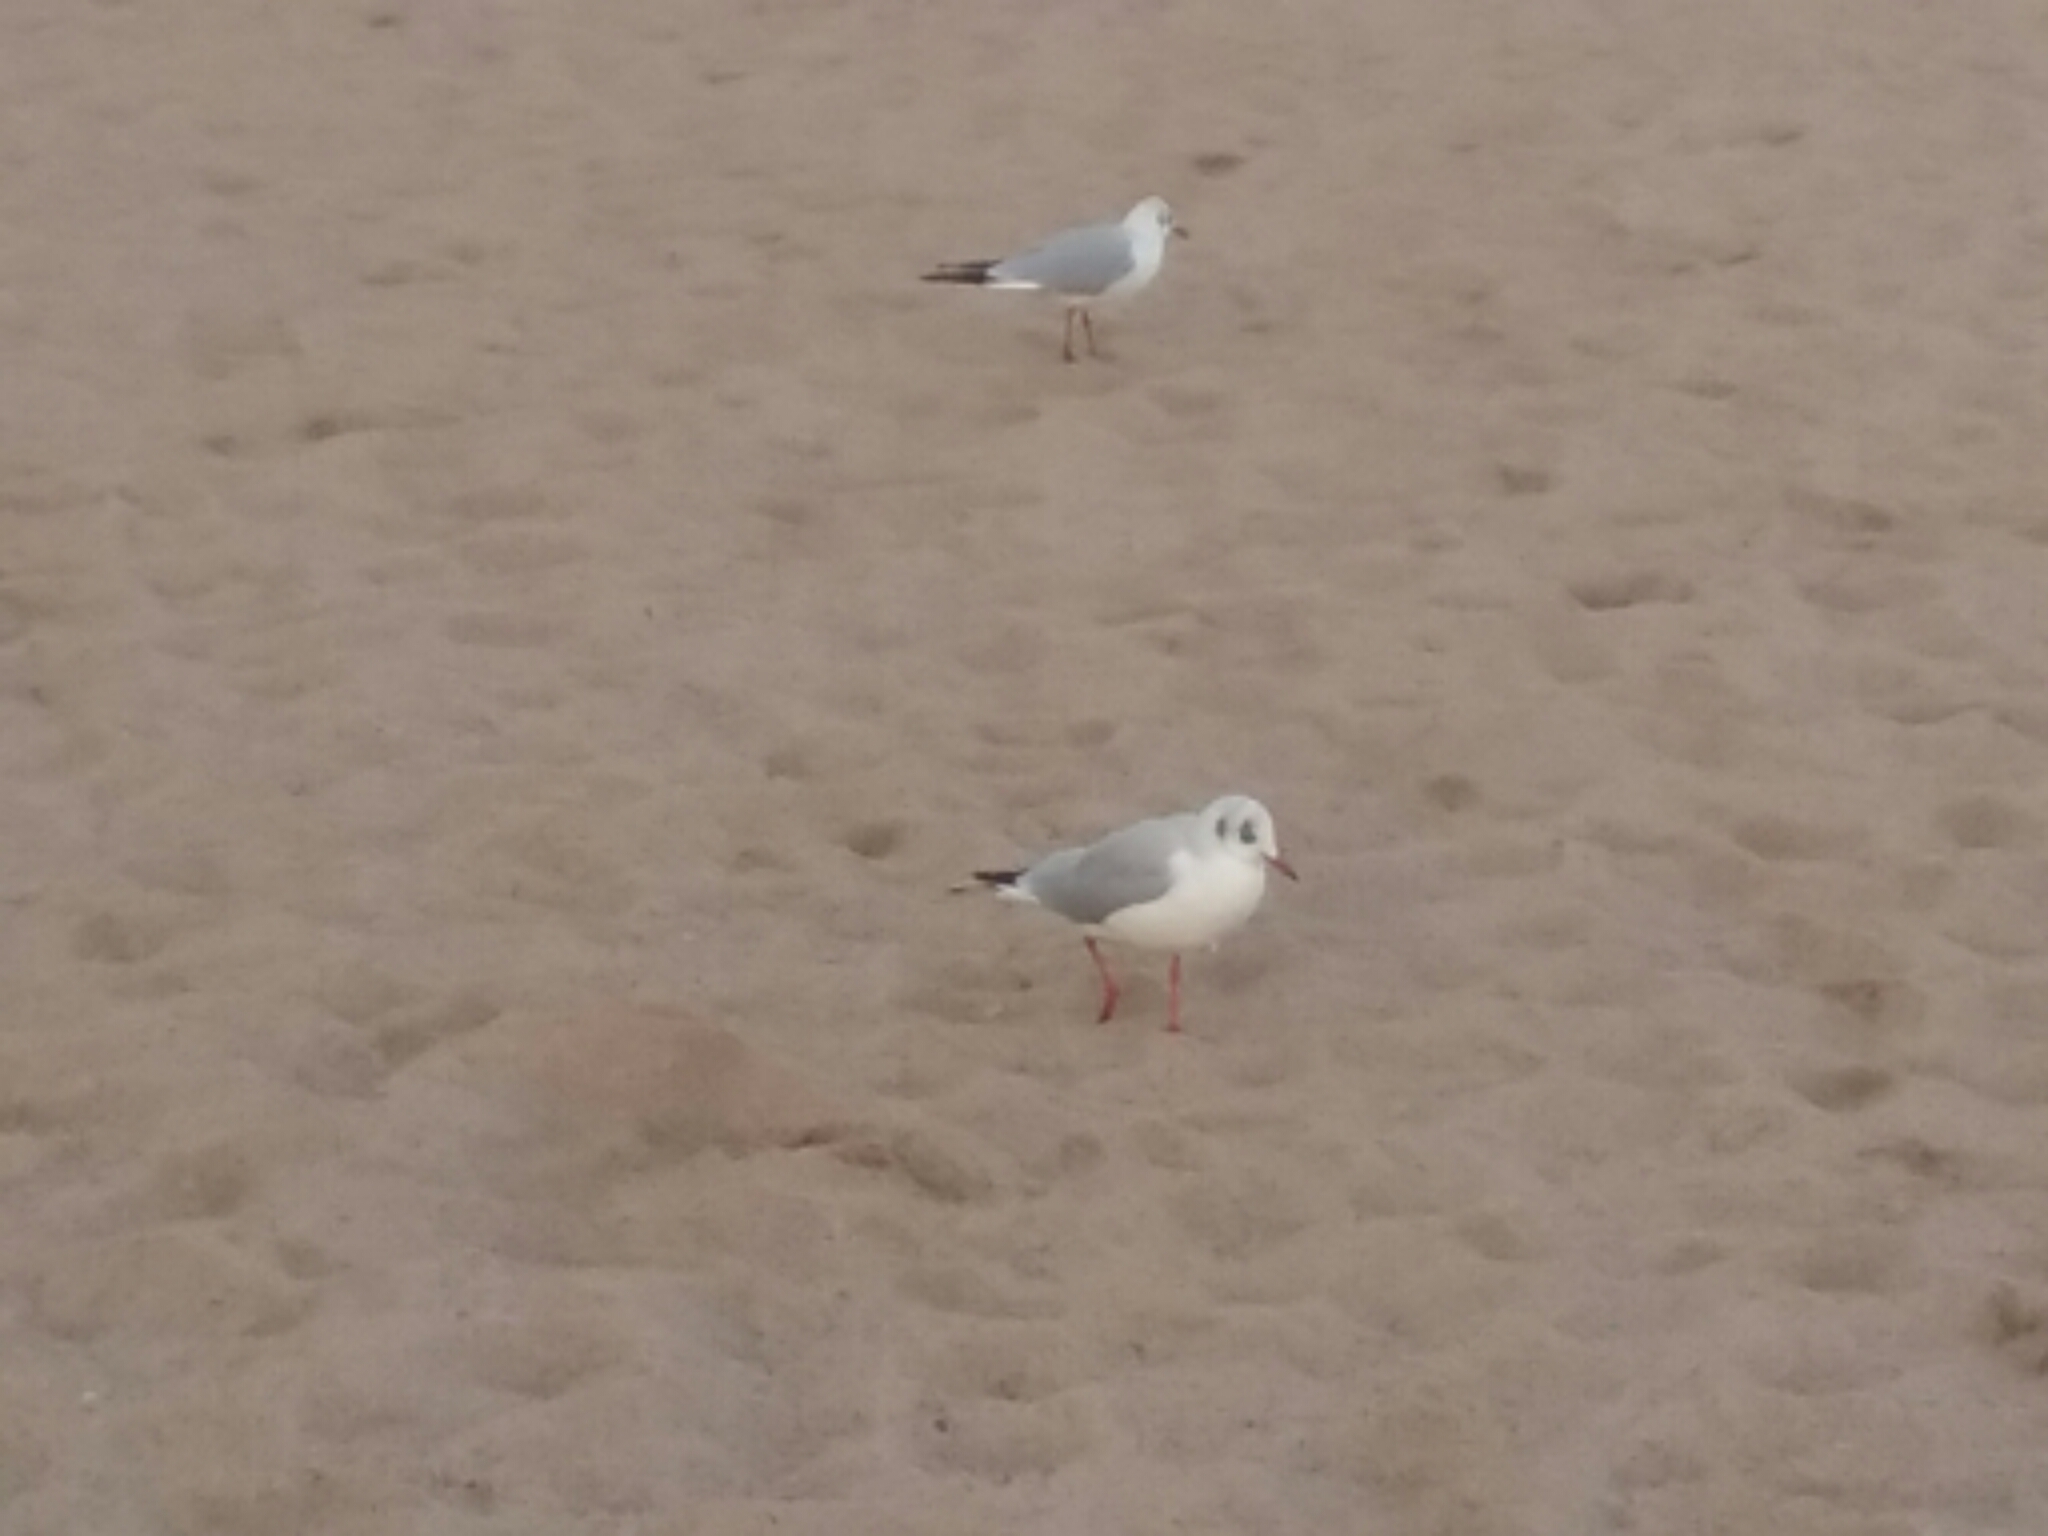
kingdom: Animalia
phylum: Chordata
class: Aves
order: Charadriiformes
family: Laridae
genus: Chroicocephalus
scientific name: Chroicocephalus ridibundus
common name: Black-headed gull
